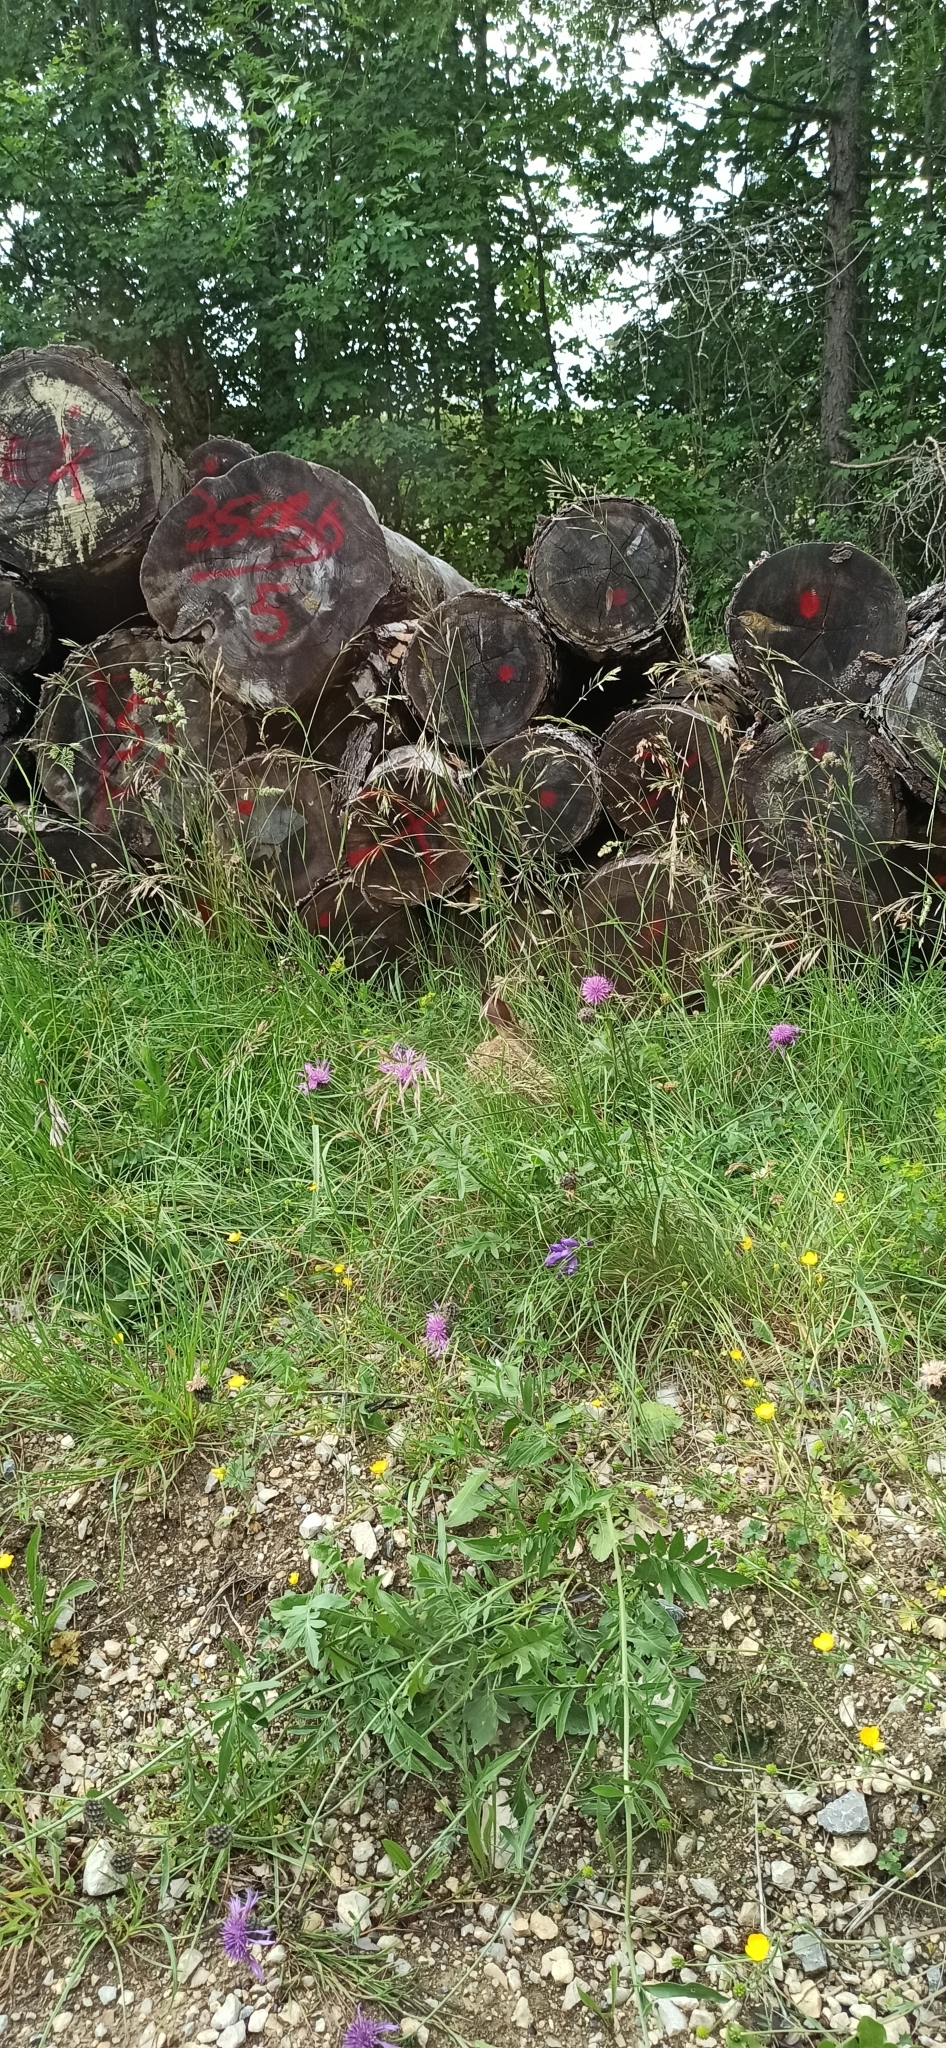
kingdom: Animalia
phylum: Chordata
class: Mammalia
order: Lagomorpha
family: Leporidae
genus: Lepus
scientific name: Lepus europaeus
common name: European hare
